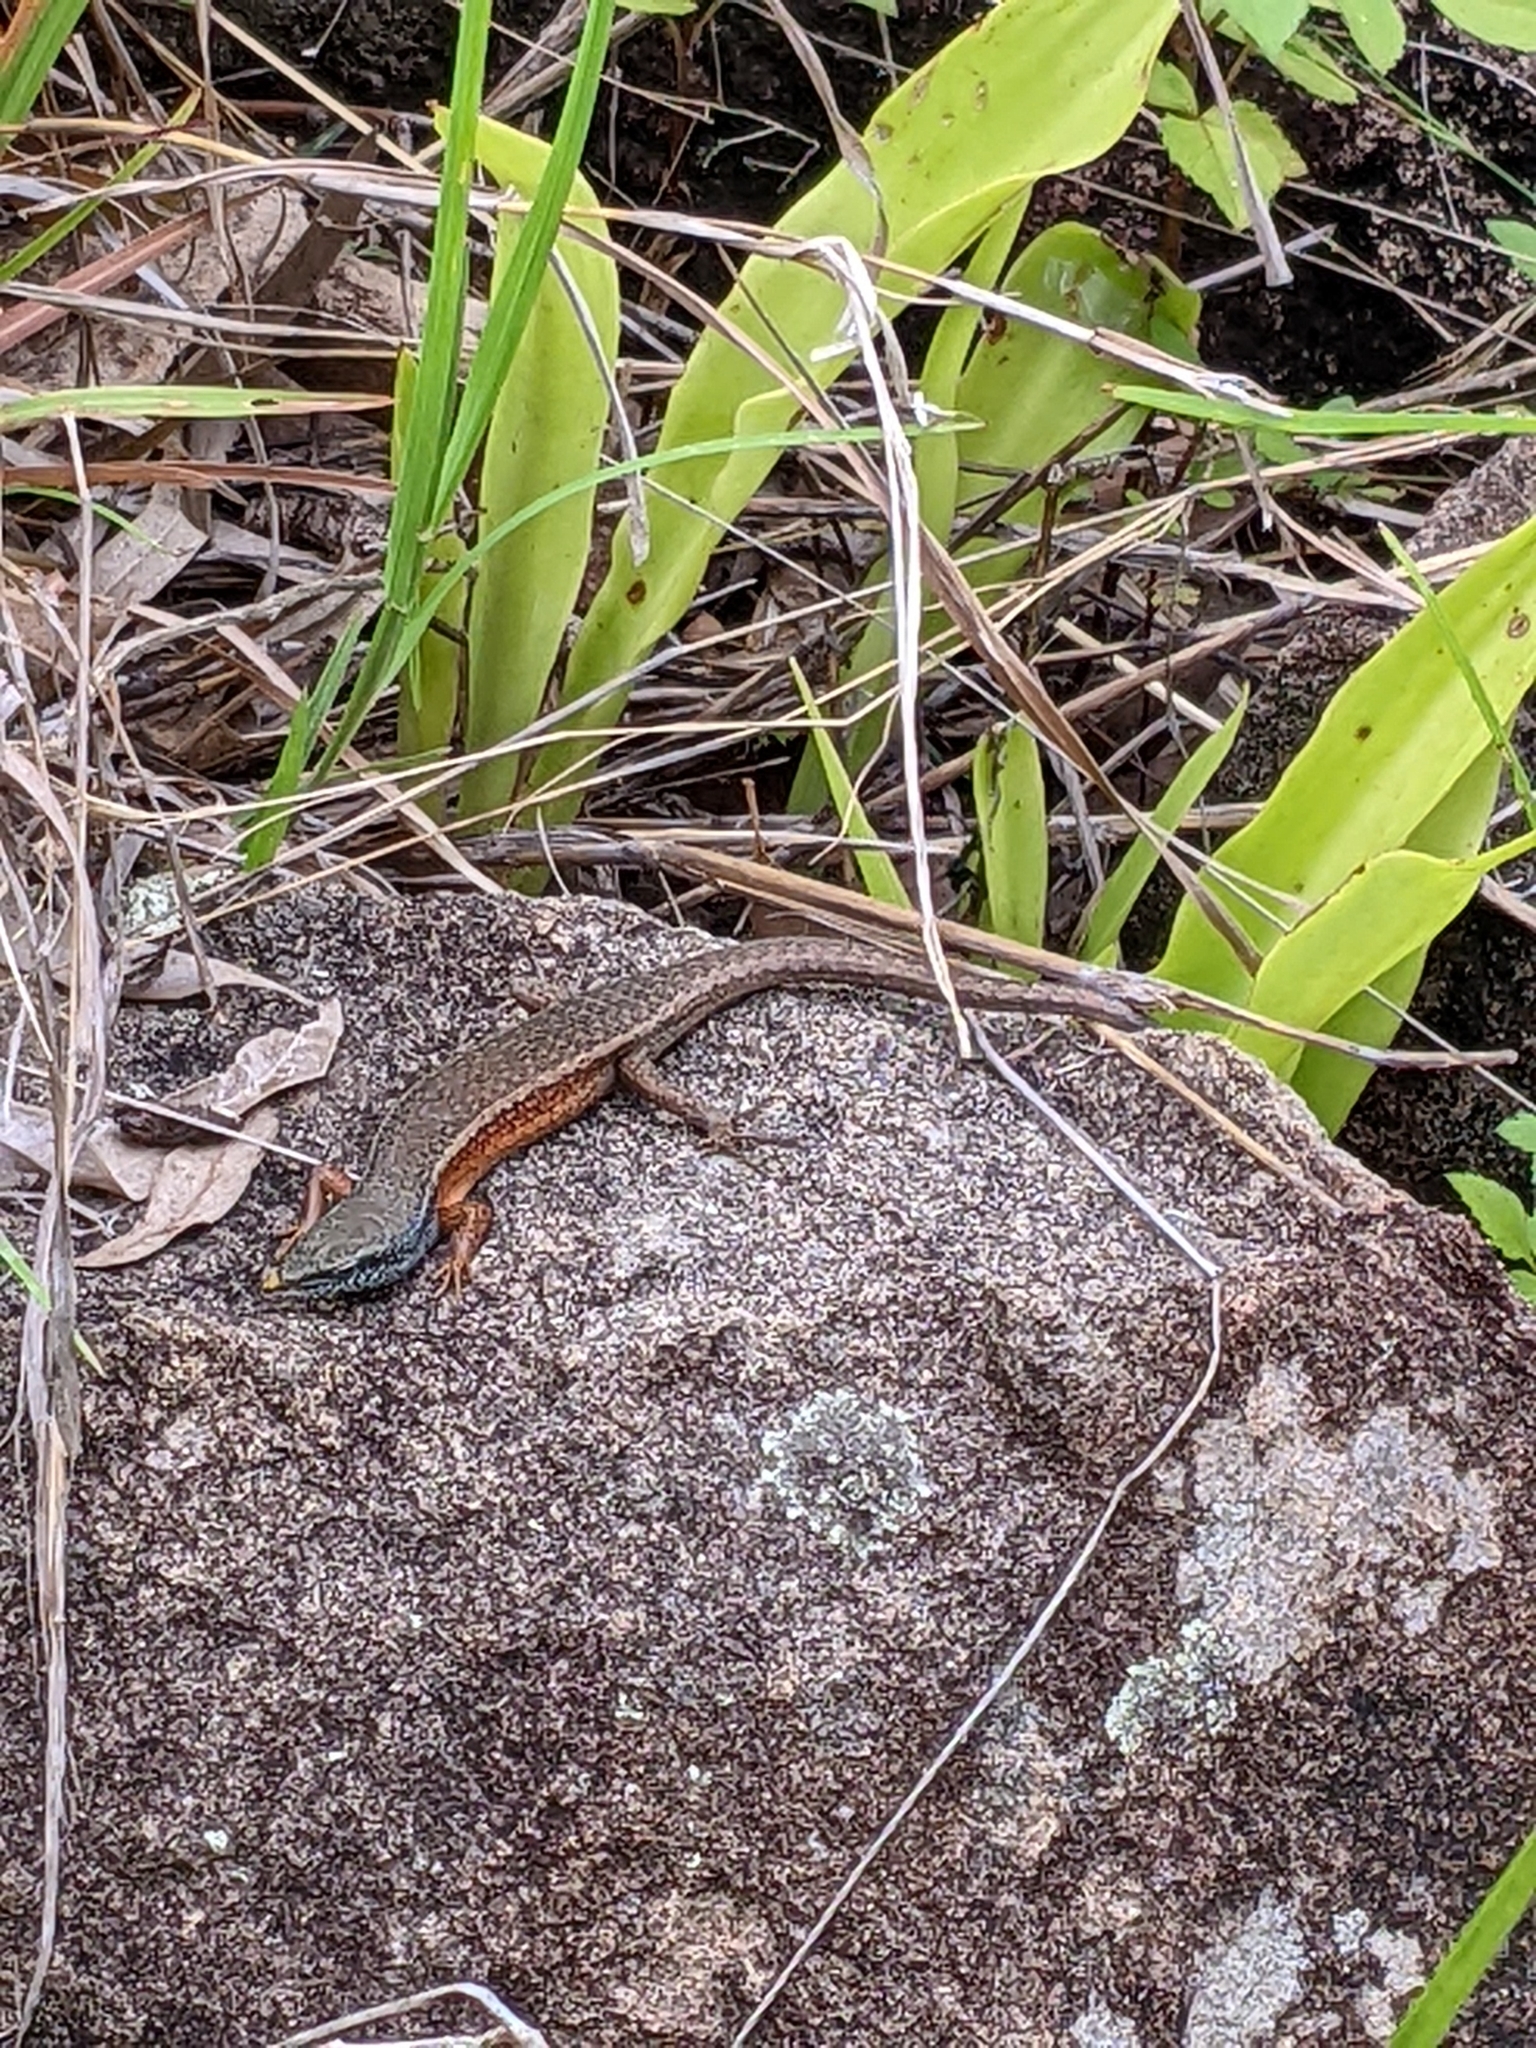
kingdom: Animalia
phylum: Chordata
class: Squamata
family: Scincidae
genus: Carlia
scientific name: Carlia schmeltzii
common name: Robust rainbow-skink
